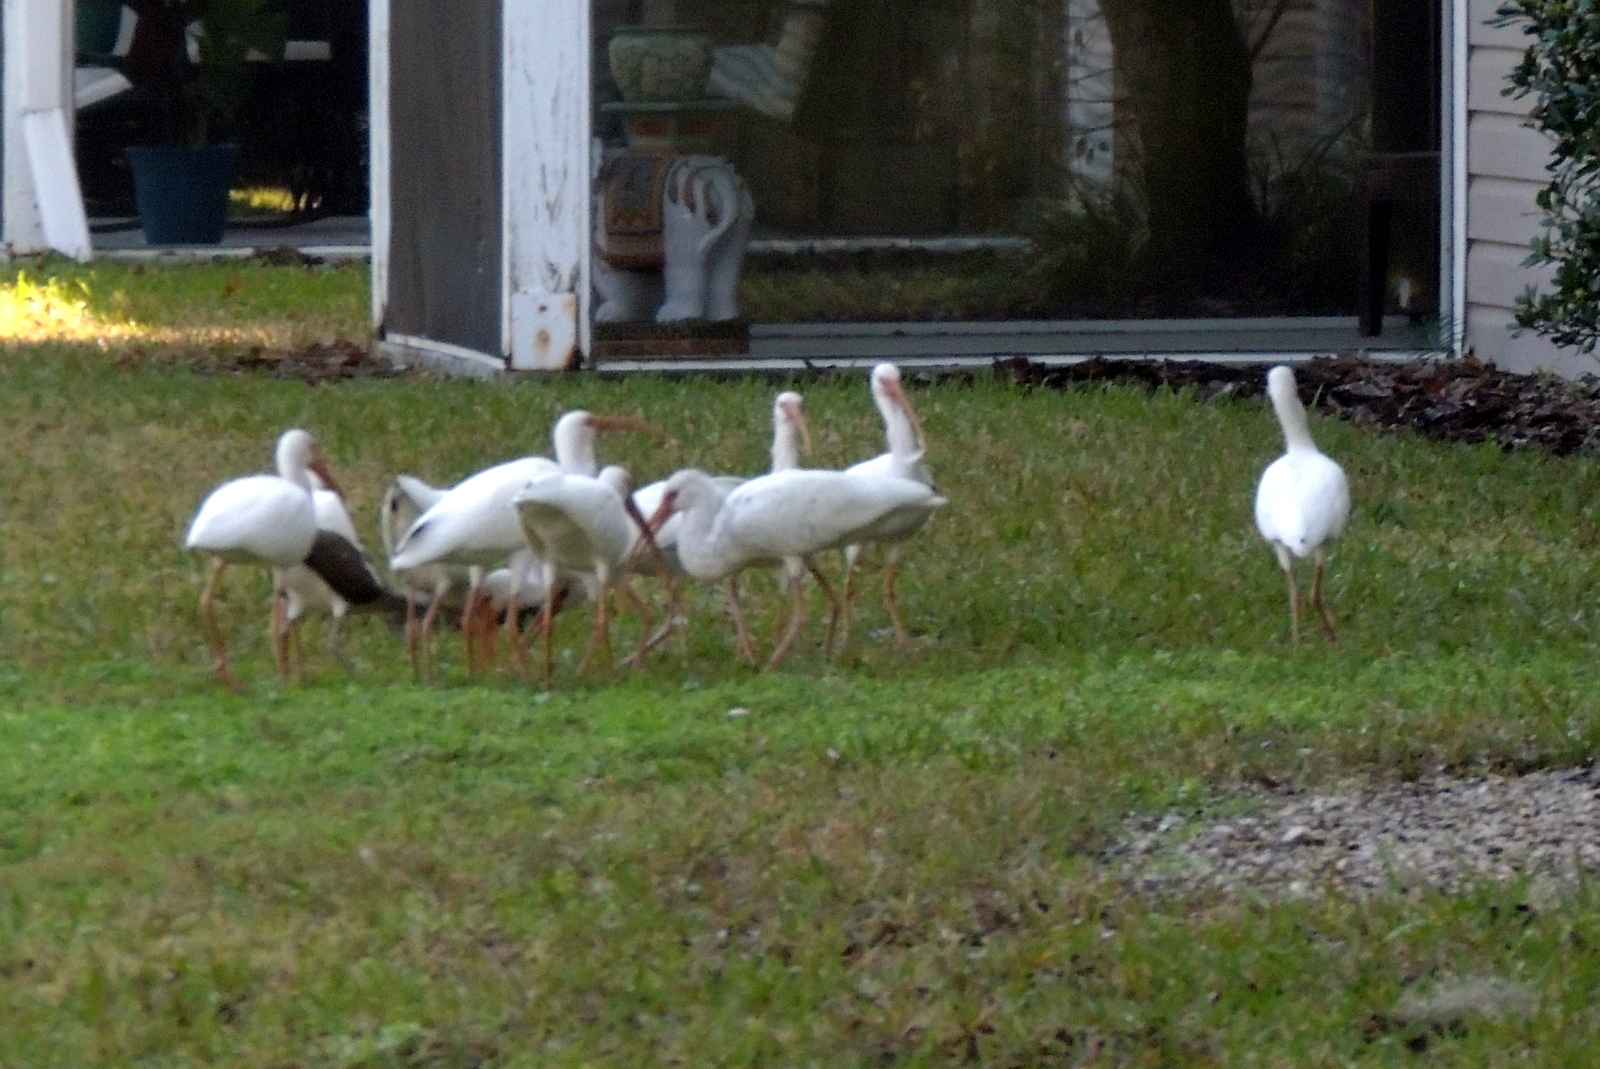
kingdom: Animalia
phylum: Chordata
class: Aves
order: Pelecaniformes
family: Threskiornithidae
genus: Eudocimus
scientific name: Eudocimus albus
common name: White ibis
